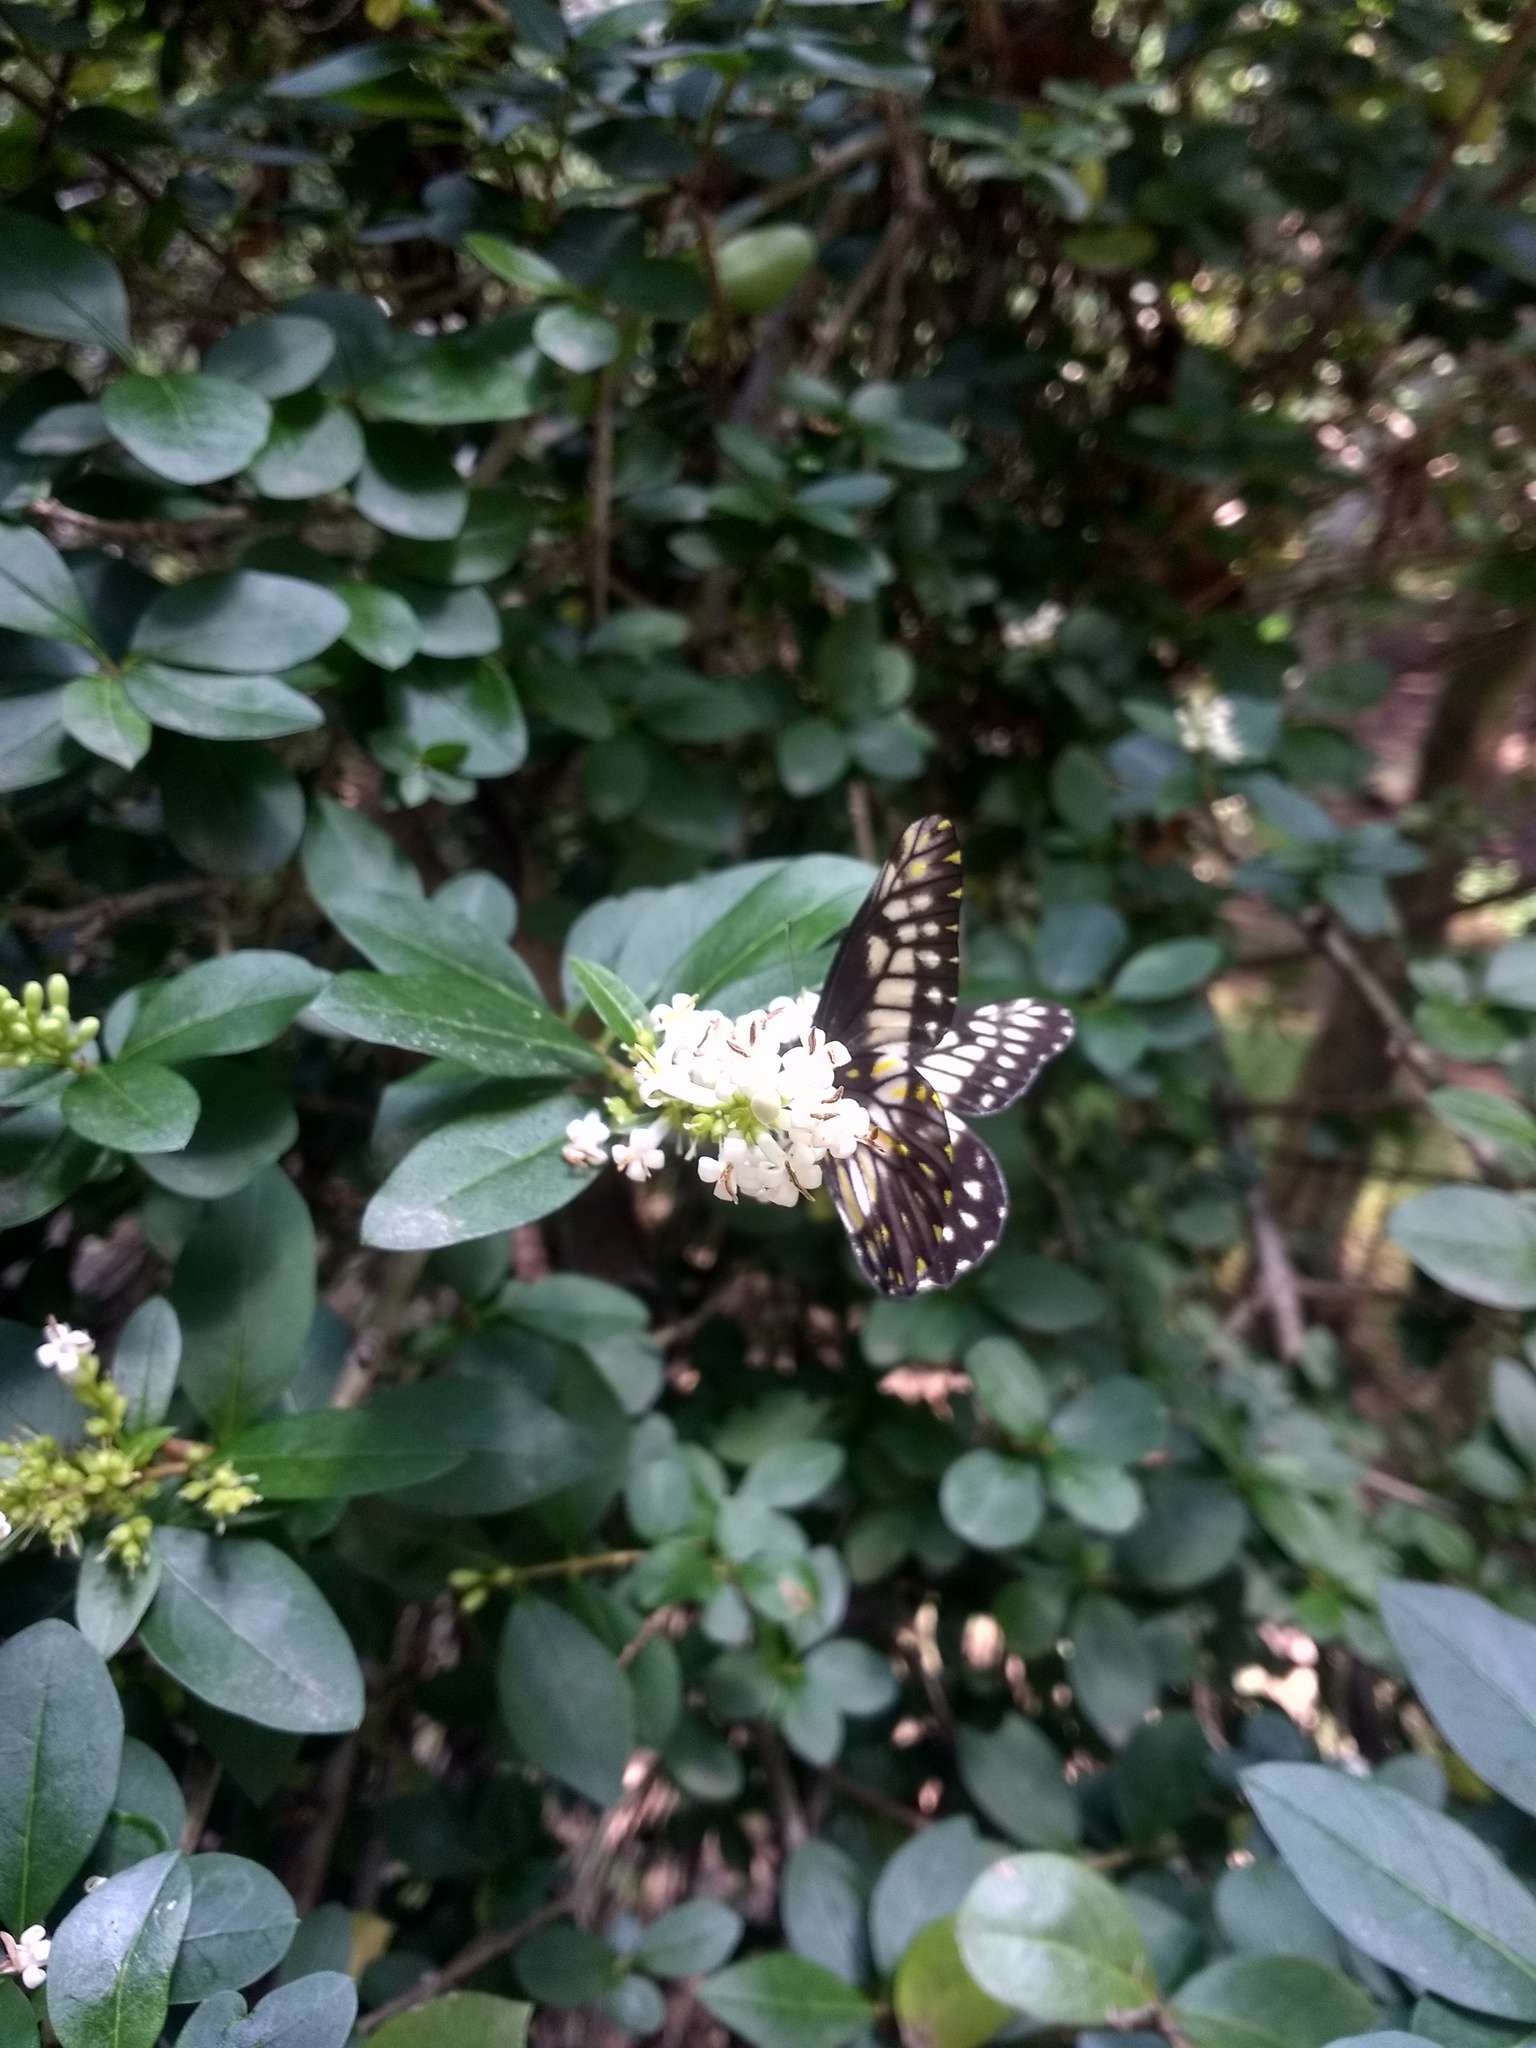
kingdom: Animalia
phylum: Arthropoda
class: Insecta
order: Lepidoptera
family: Pieridae
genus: Archonias
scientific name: Archonias nimbice
